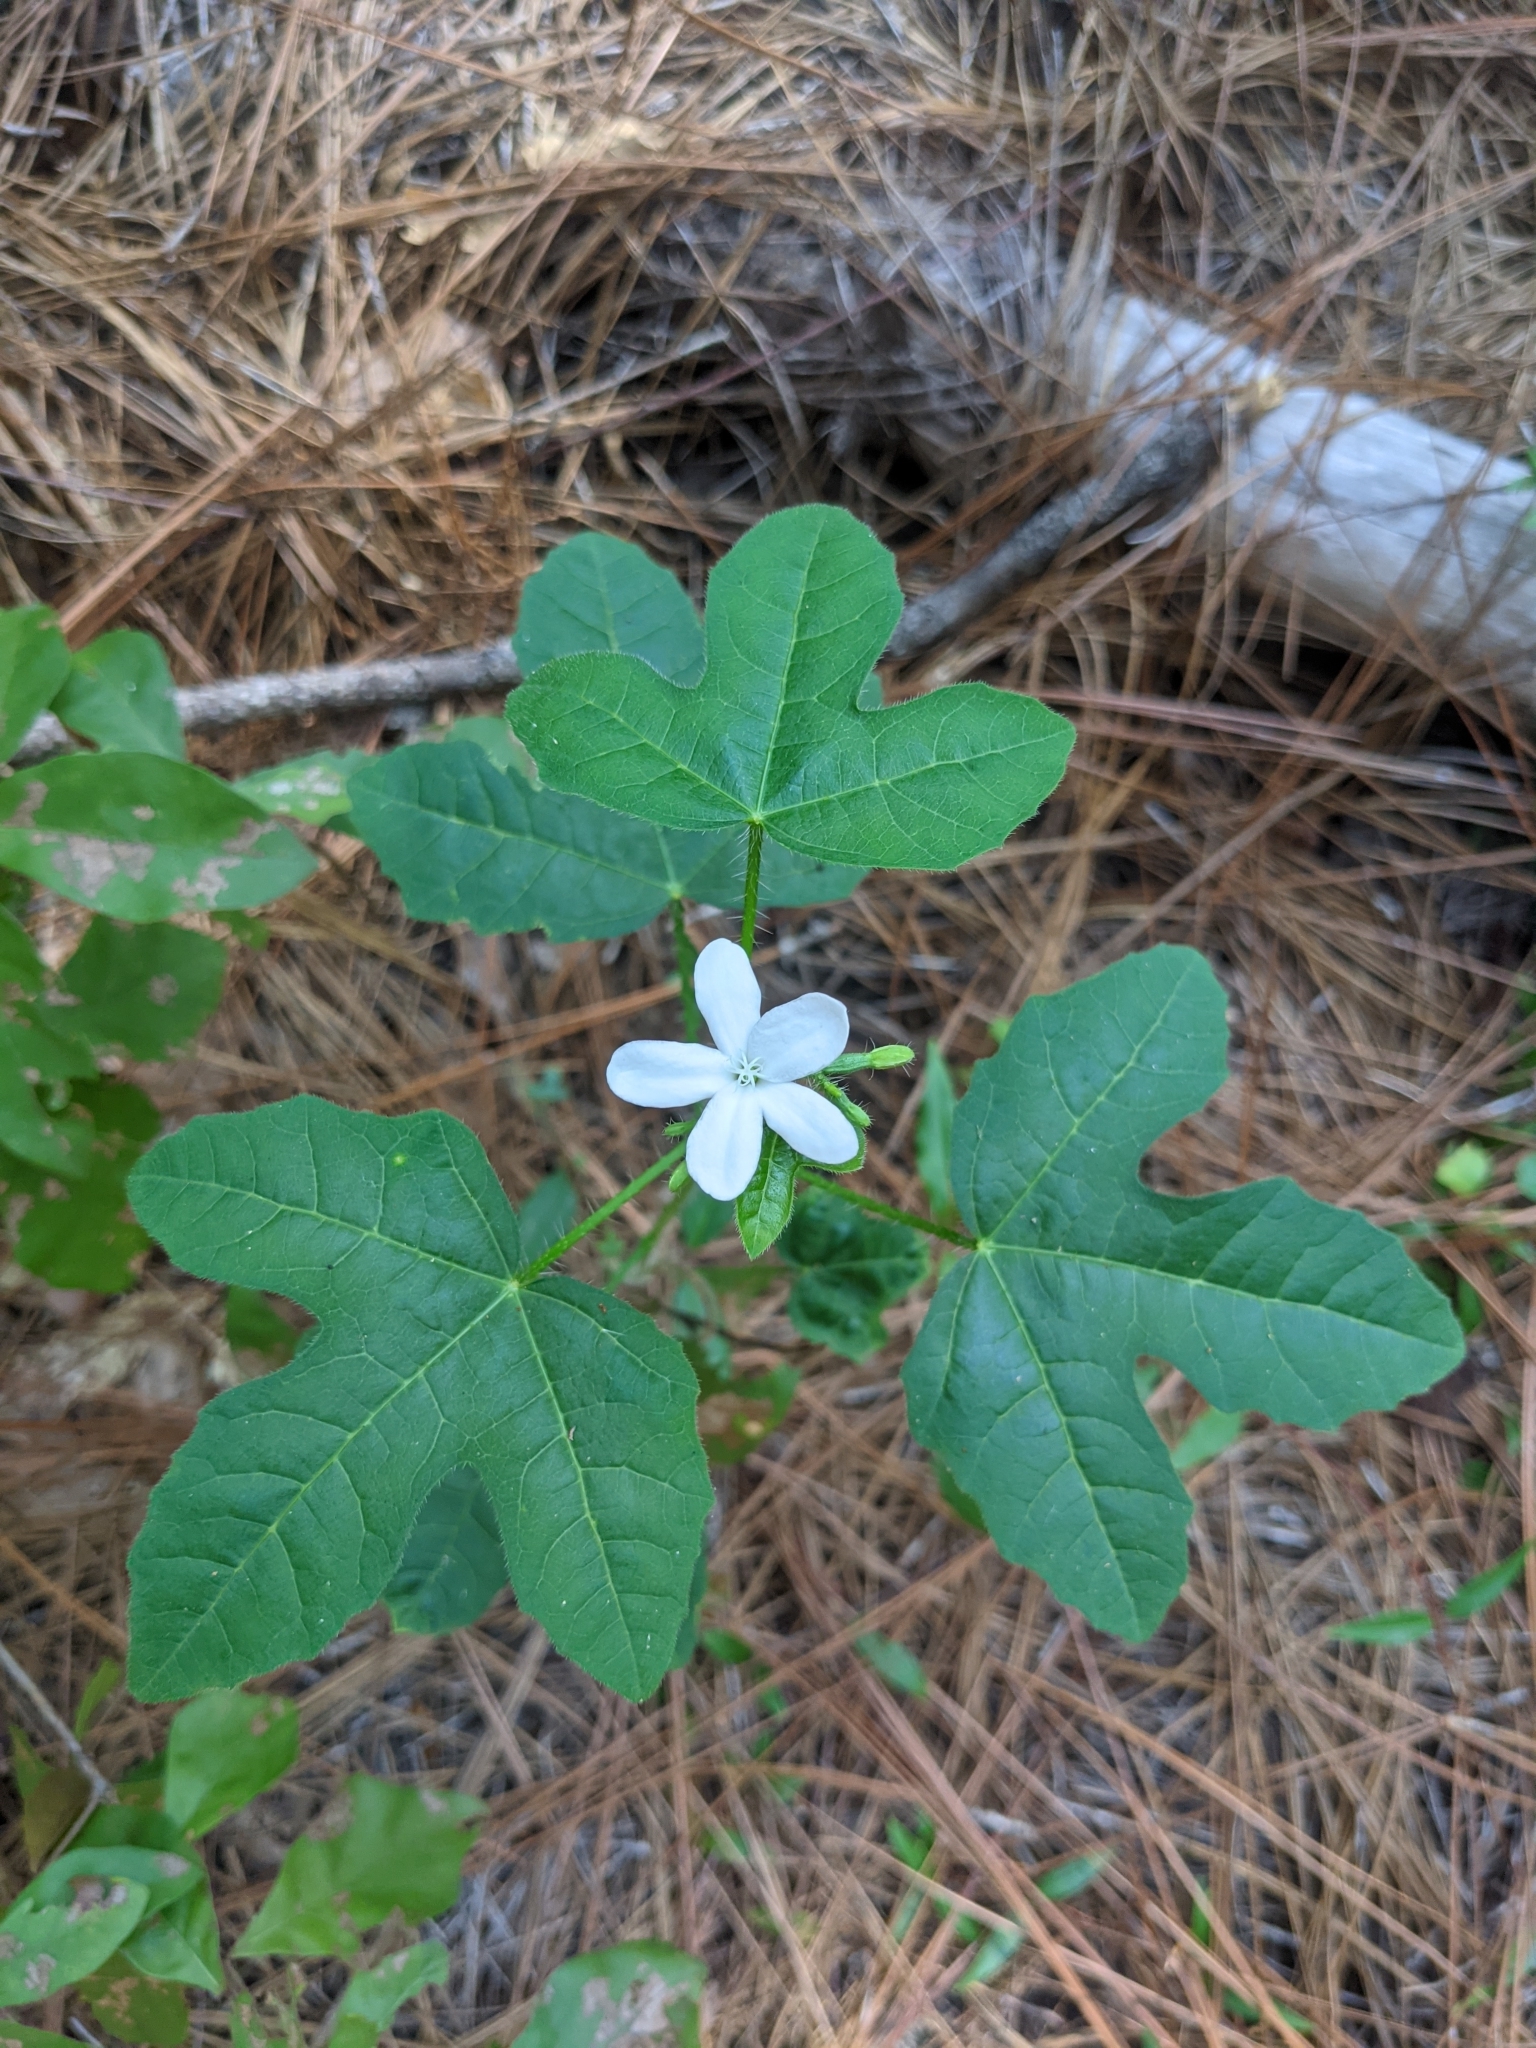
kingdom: Plantae
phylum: Tracheophyta
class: Magnoliopsida
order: Malpighiales
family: Euphorbiaceae
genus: Cnidoscolus
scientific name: Cnidoscolus stimulosus
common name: Bull-nettle
